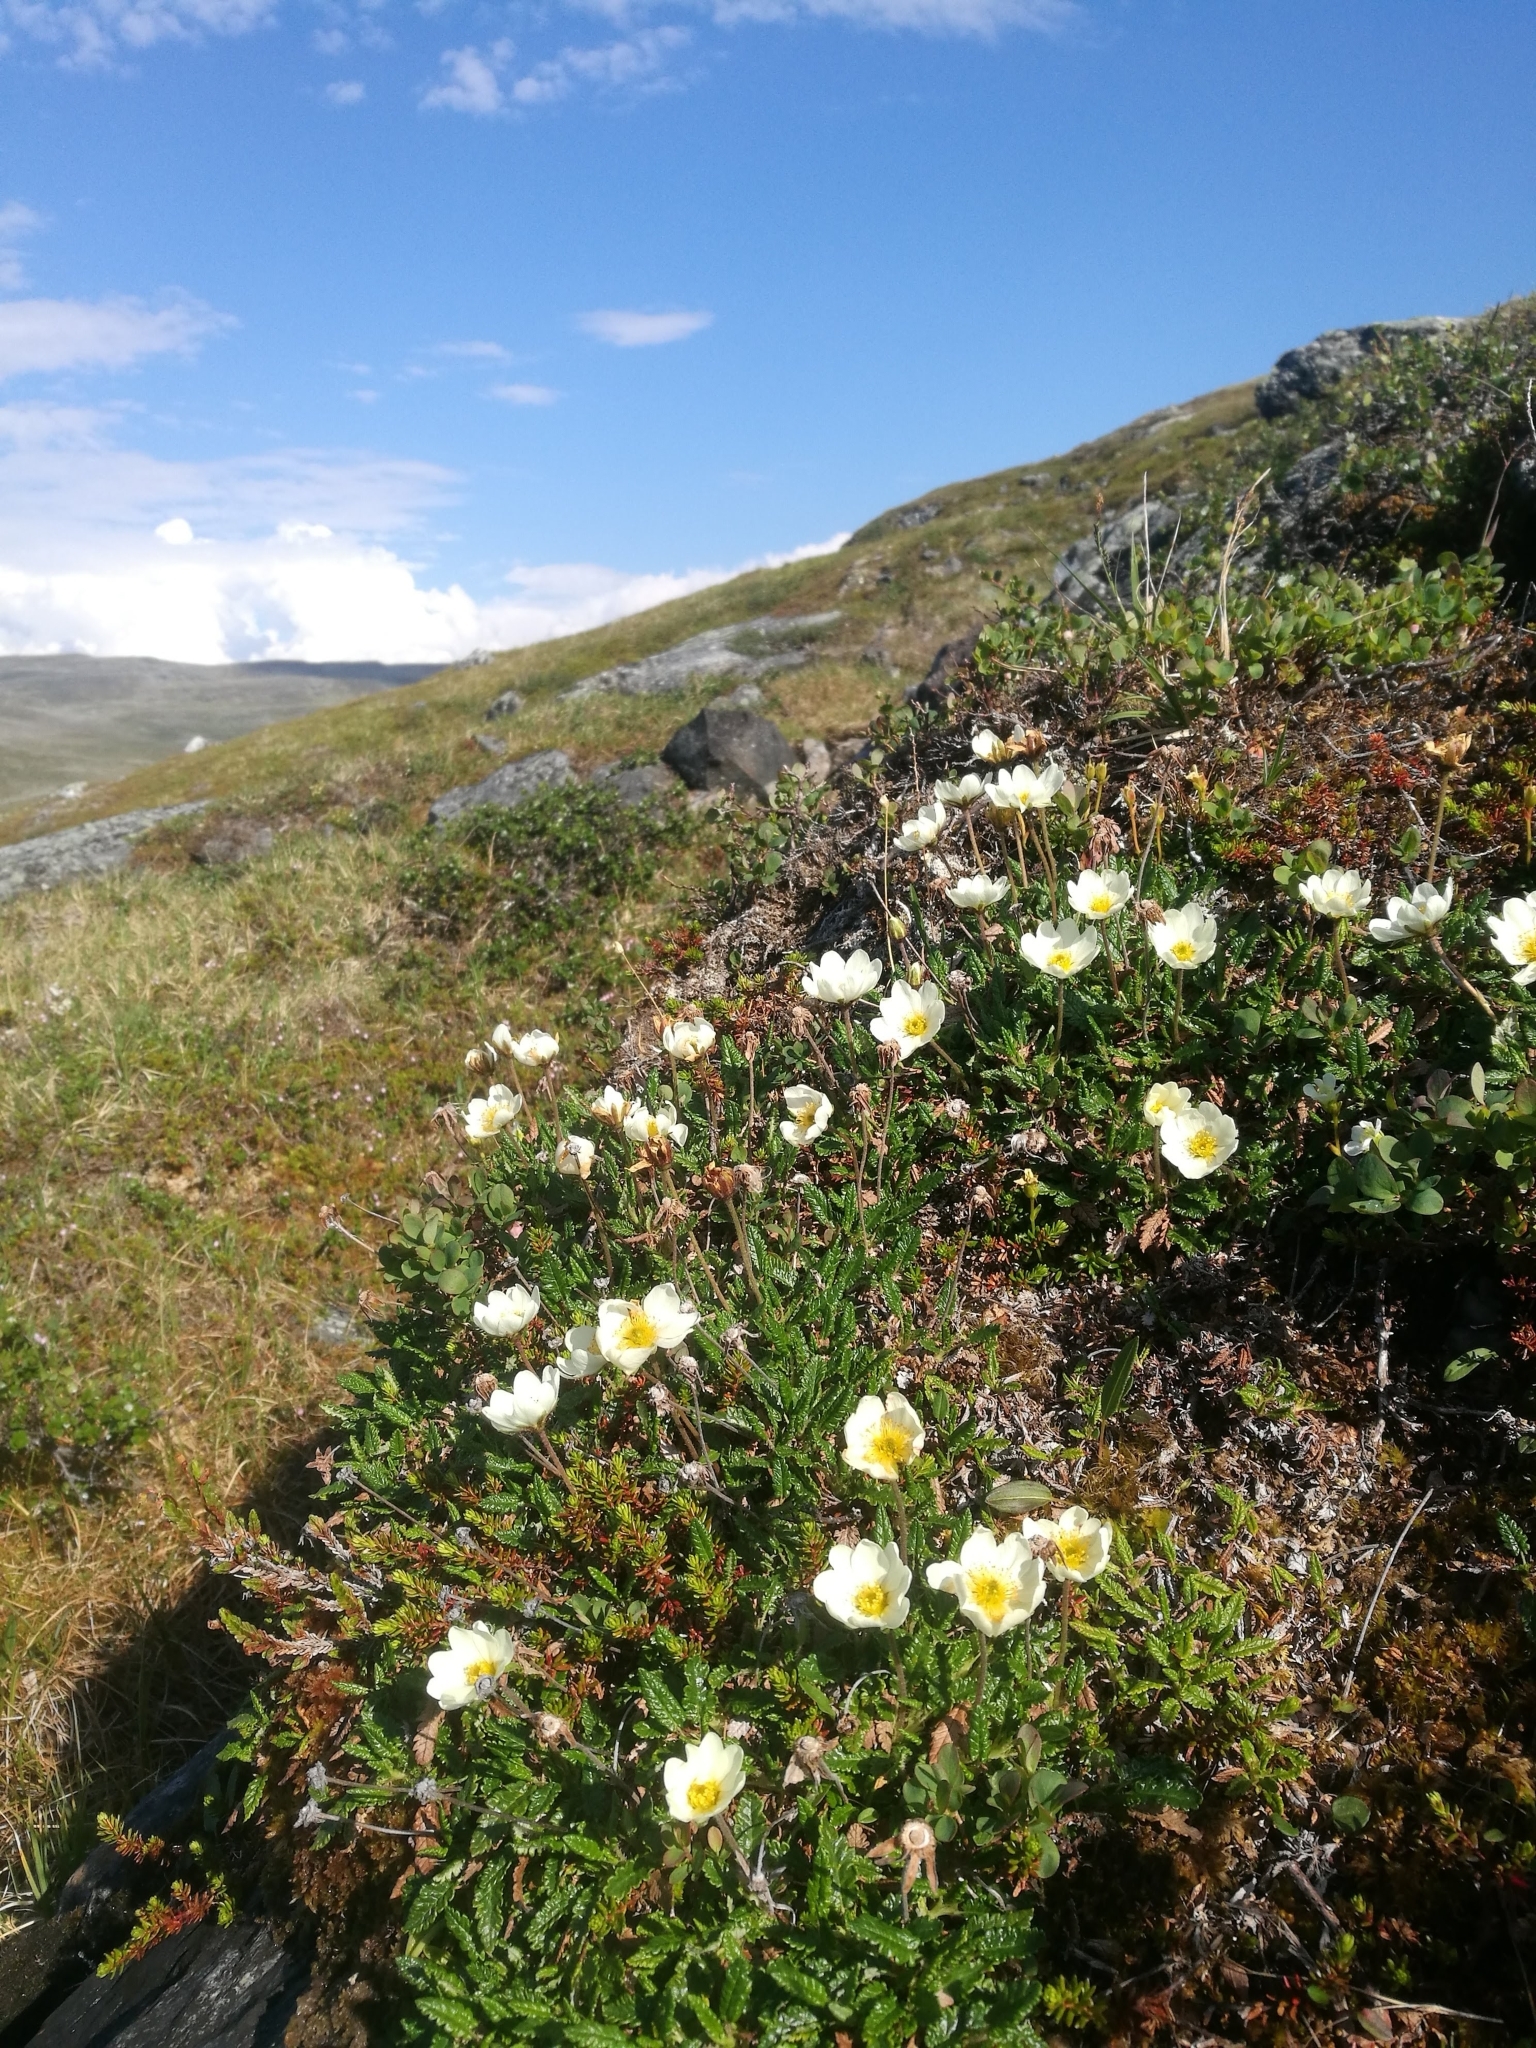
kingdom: Plantae
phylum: Tracheophyta
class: Magnoliopsida
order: Rosales
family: Rosaceae
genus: Dryas
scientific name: Dryas octopetala
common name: Eight-petal mountain-avens
